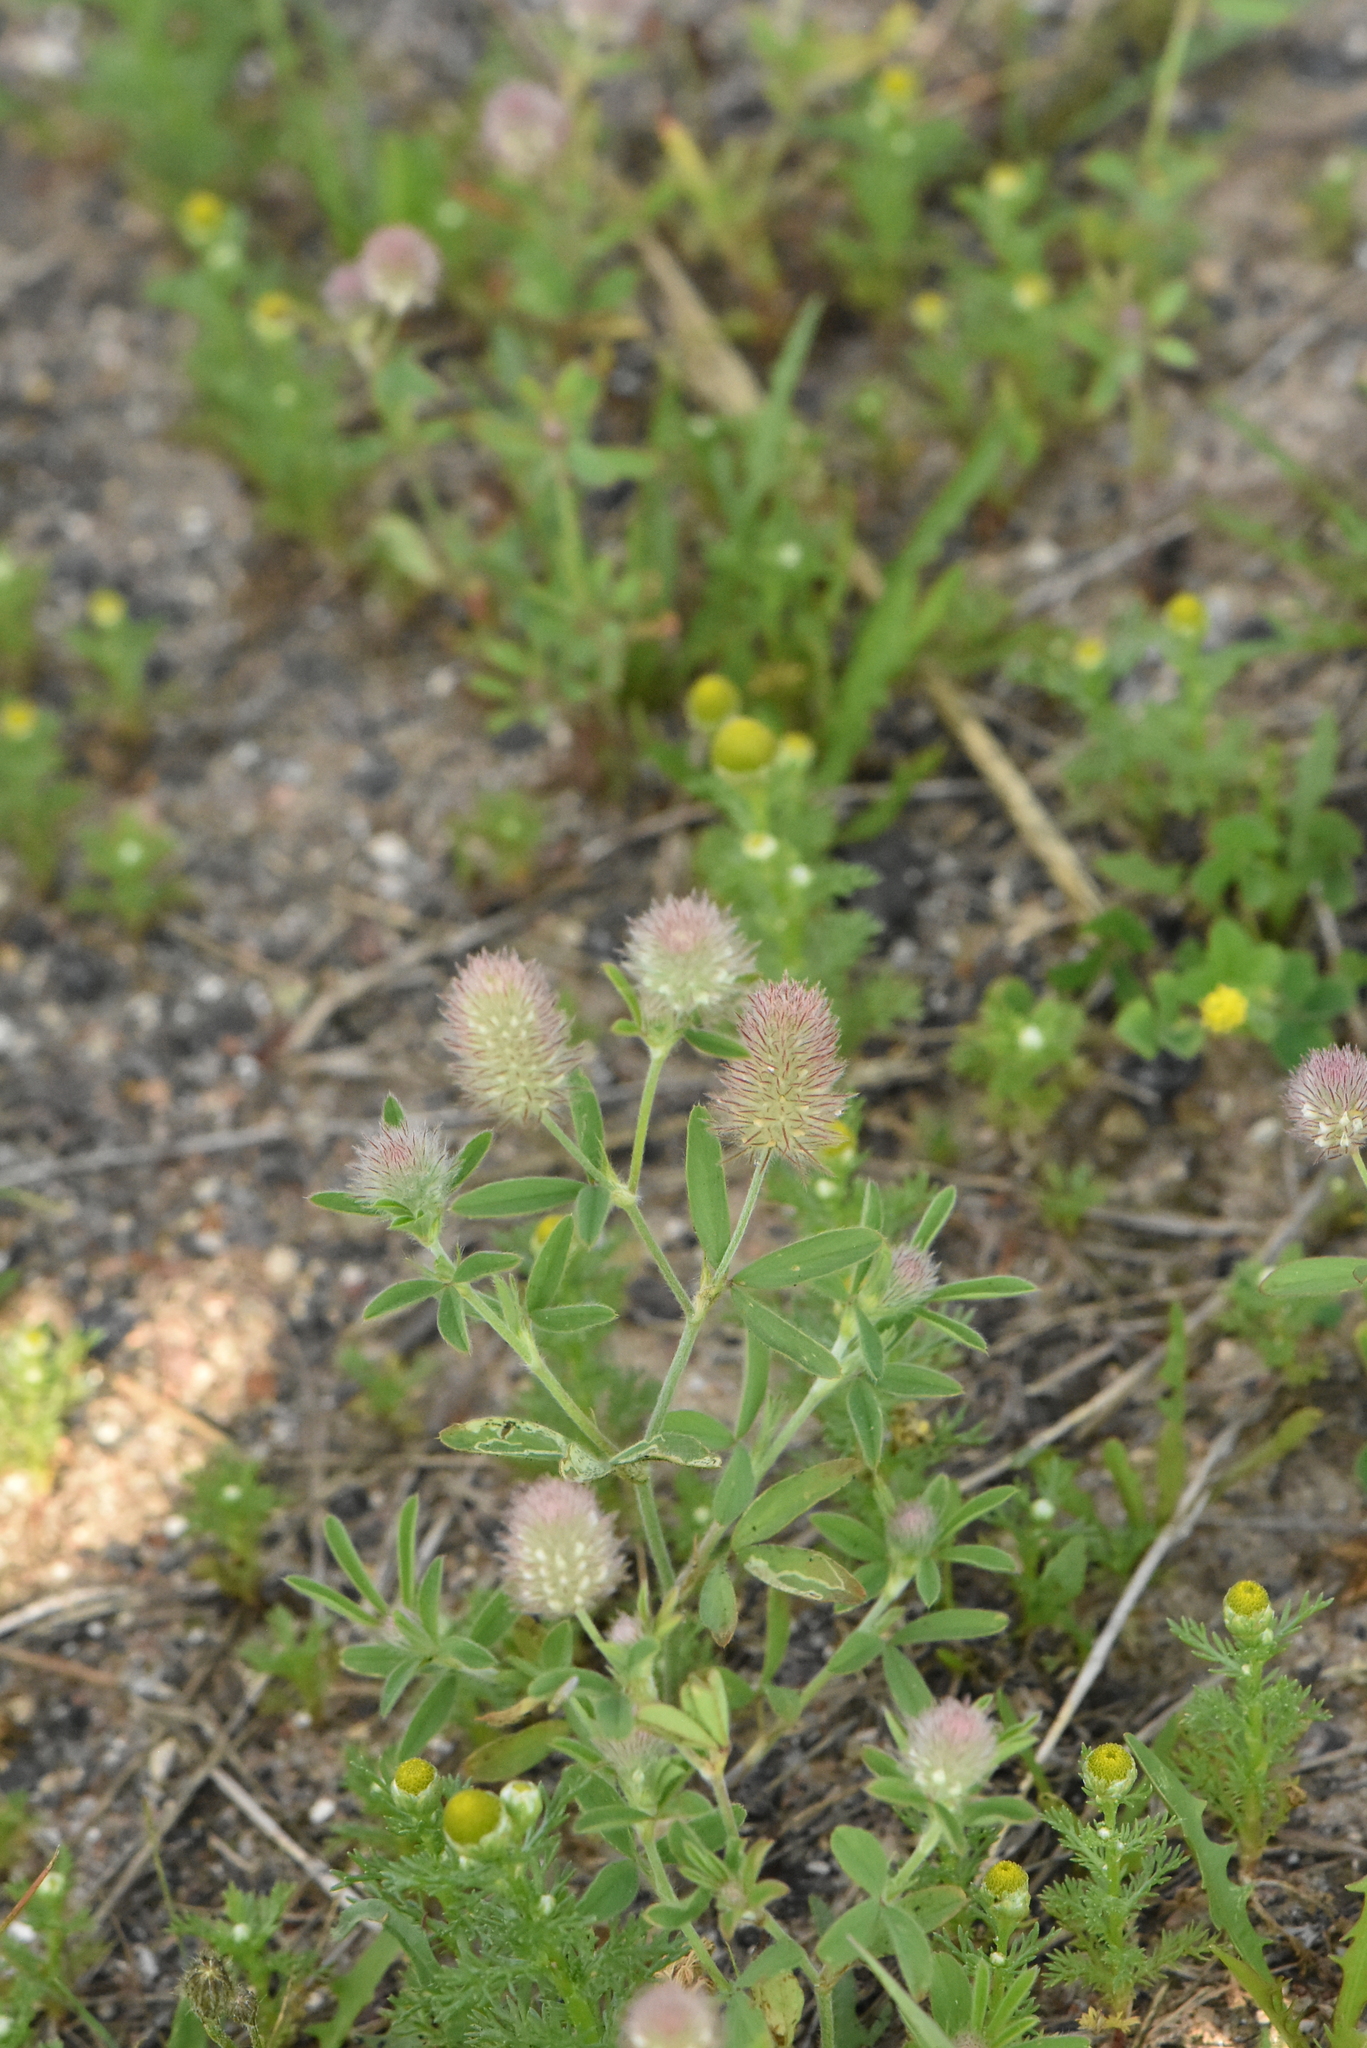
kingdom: Plantae
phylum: Tracheophyta
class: Magnoliopsida
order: Fabales
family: Fabaceae
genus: Trifolium
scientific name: Trifolium arvense
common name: Hare's-foot clover
